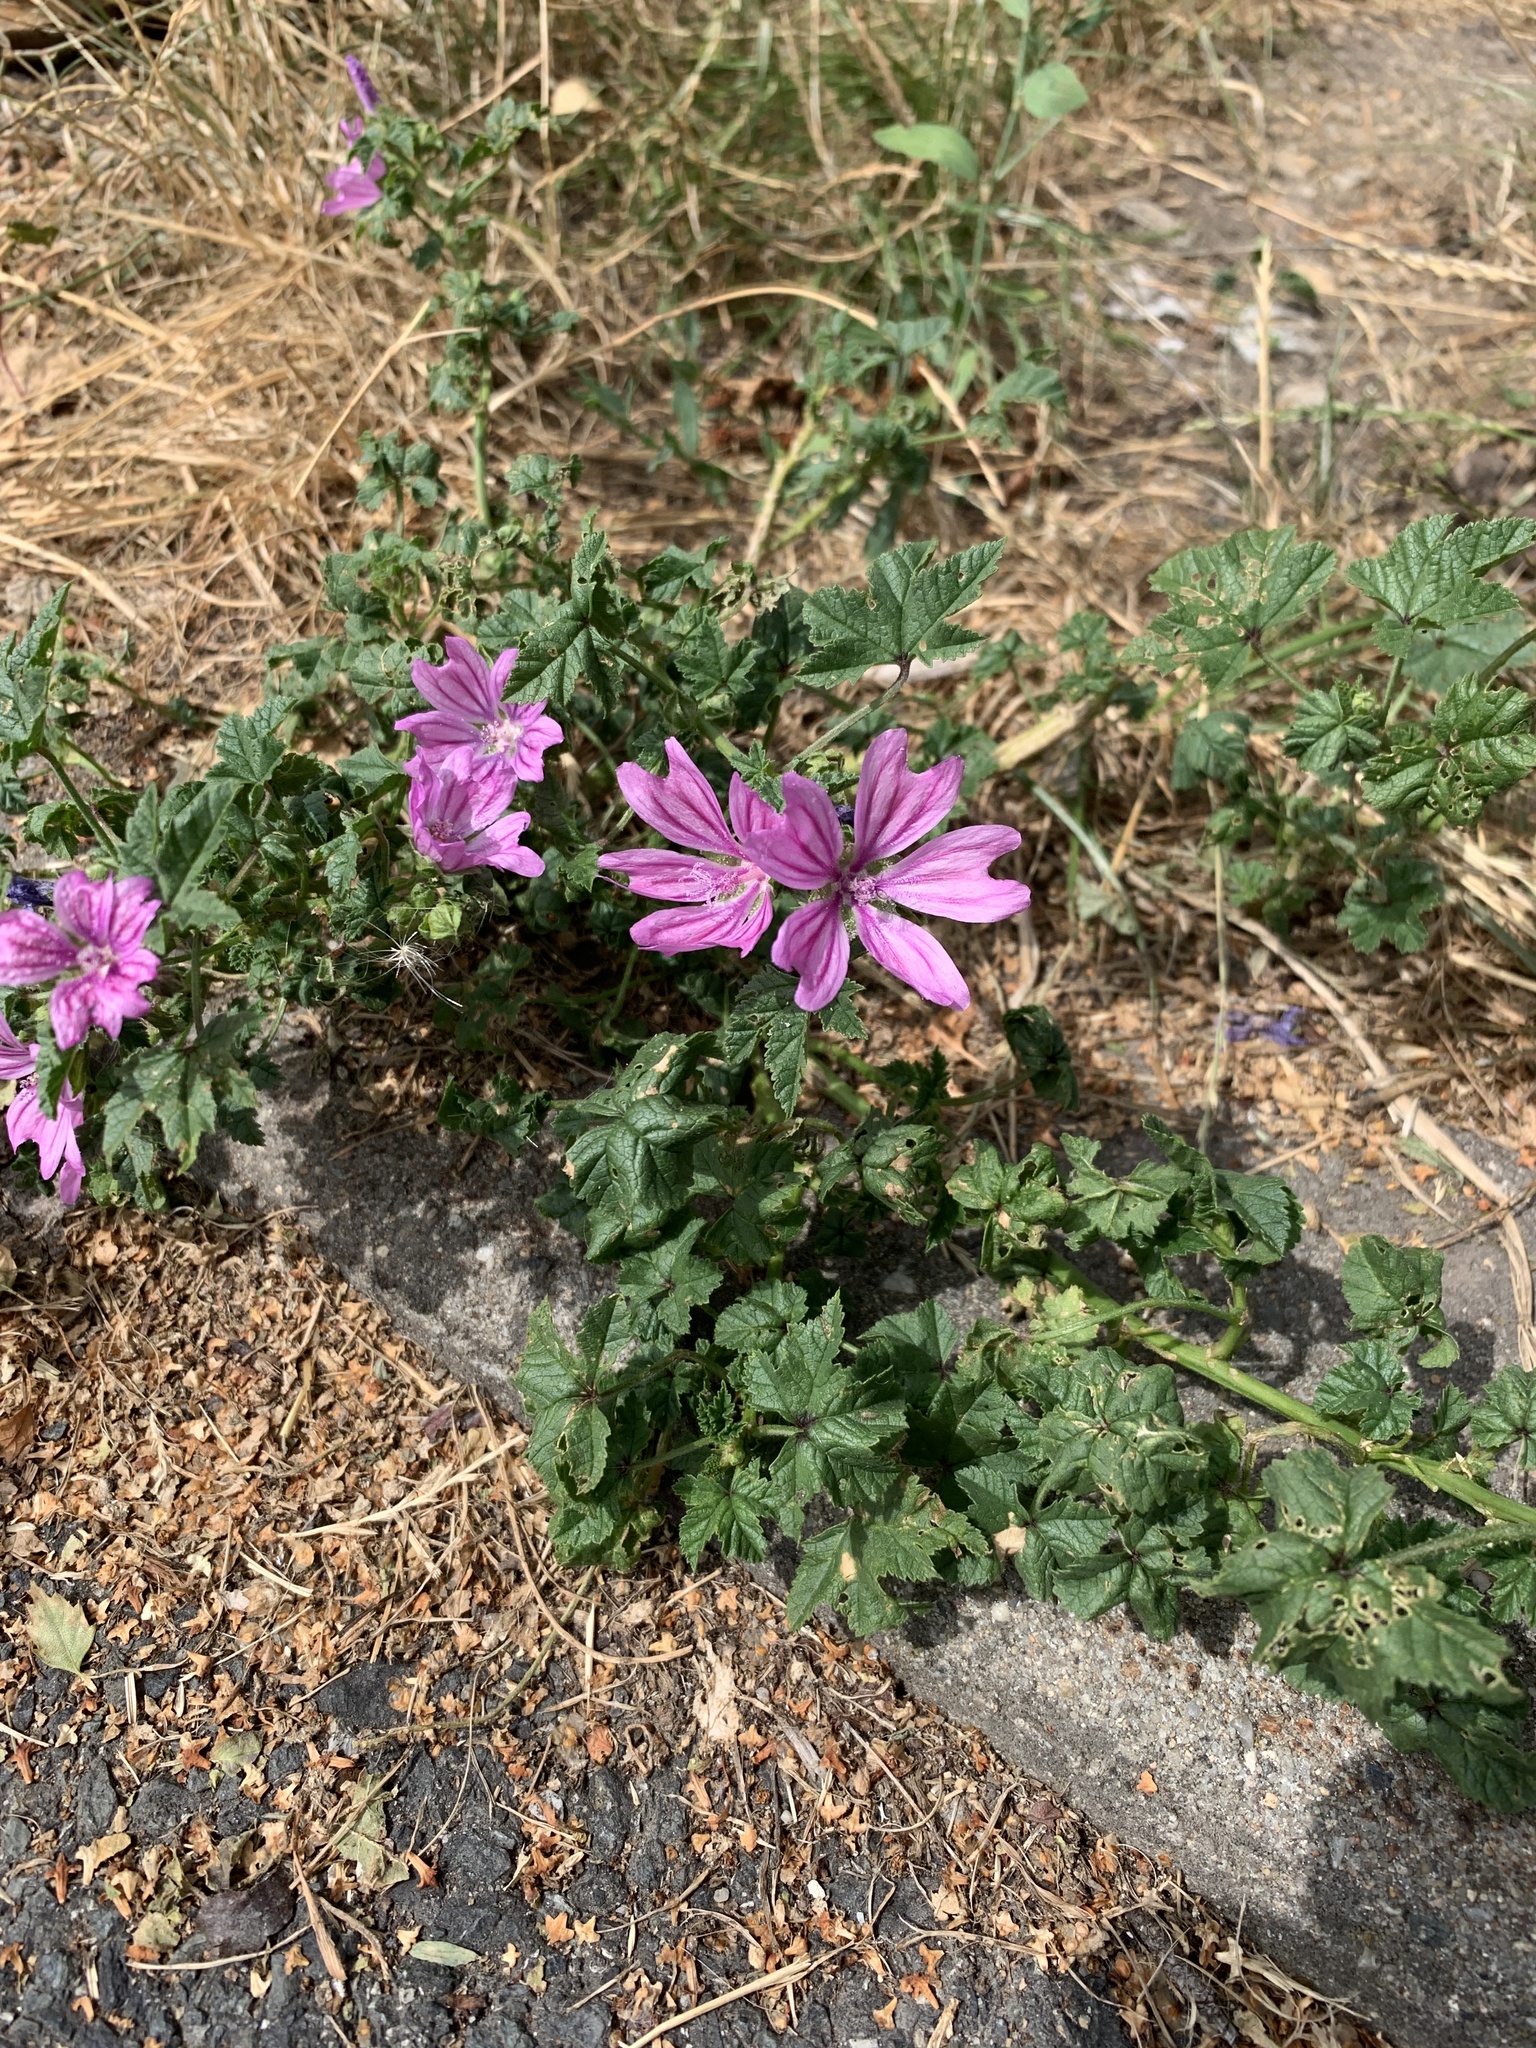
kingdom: Plantae
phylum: Tracheophyta
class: Magnoliopsida
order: Malvales
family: Malvaceae
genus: Malva
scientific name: Malva sylvestris
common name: Common mallow
